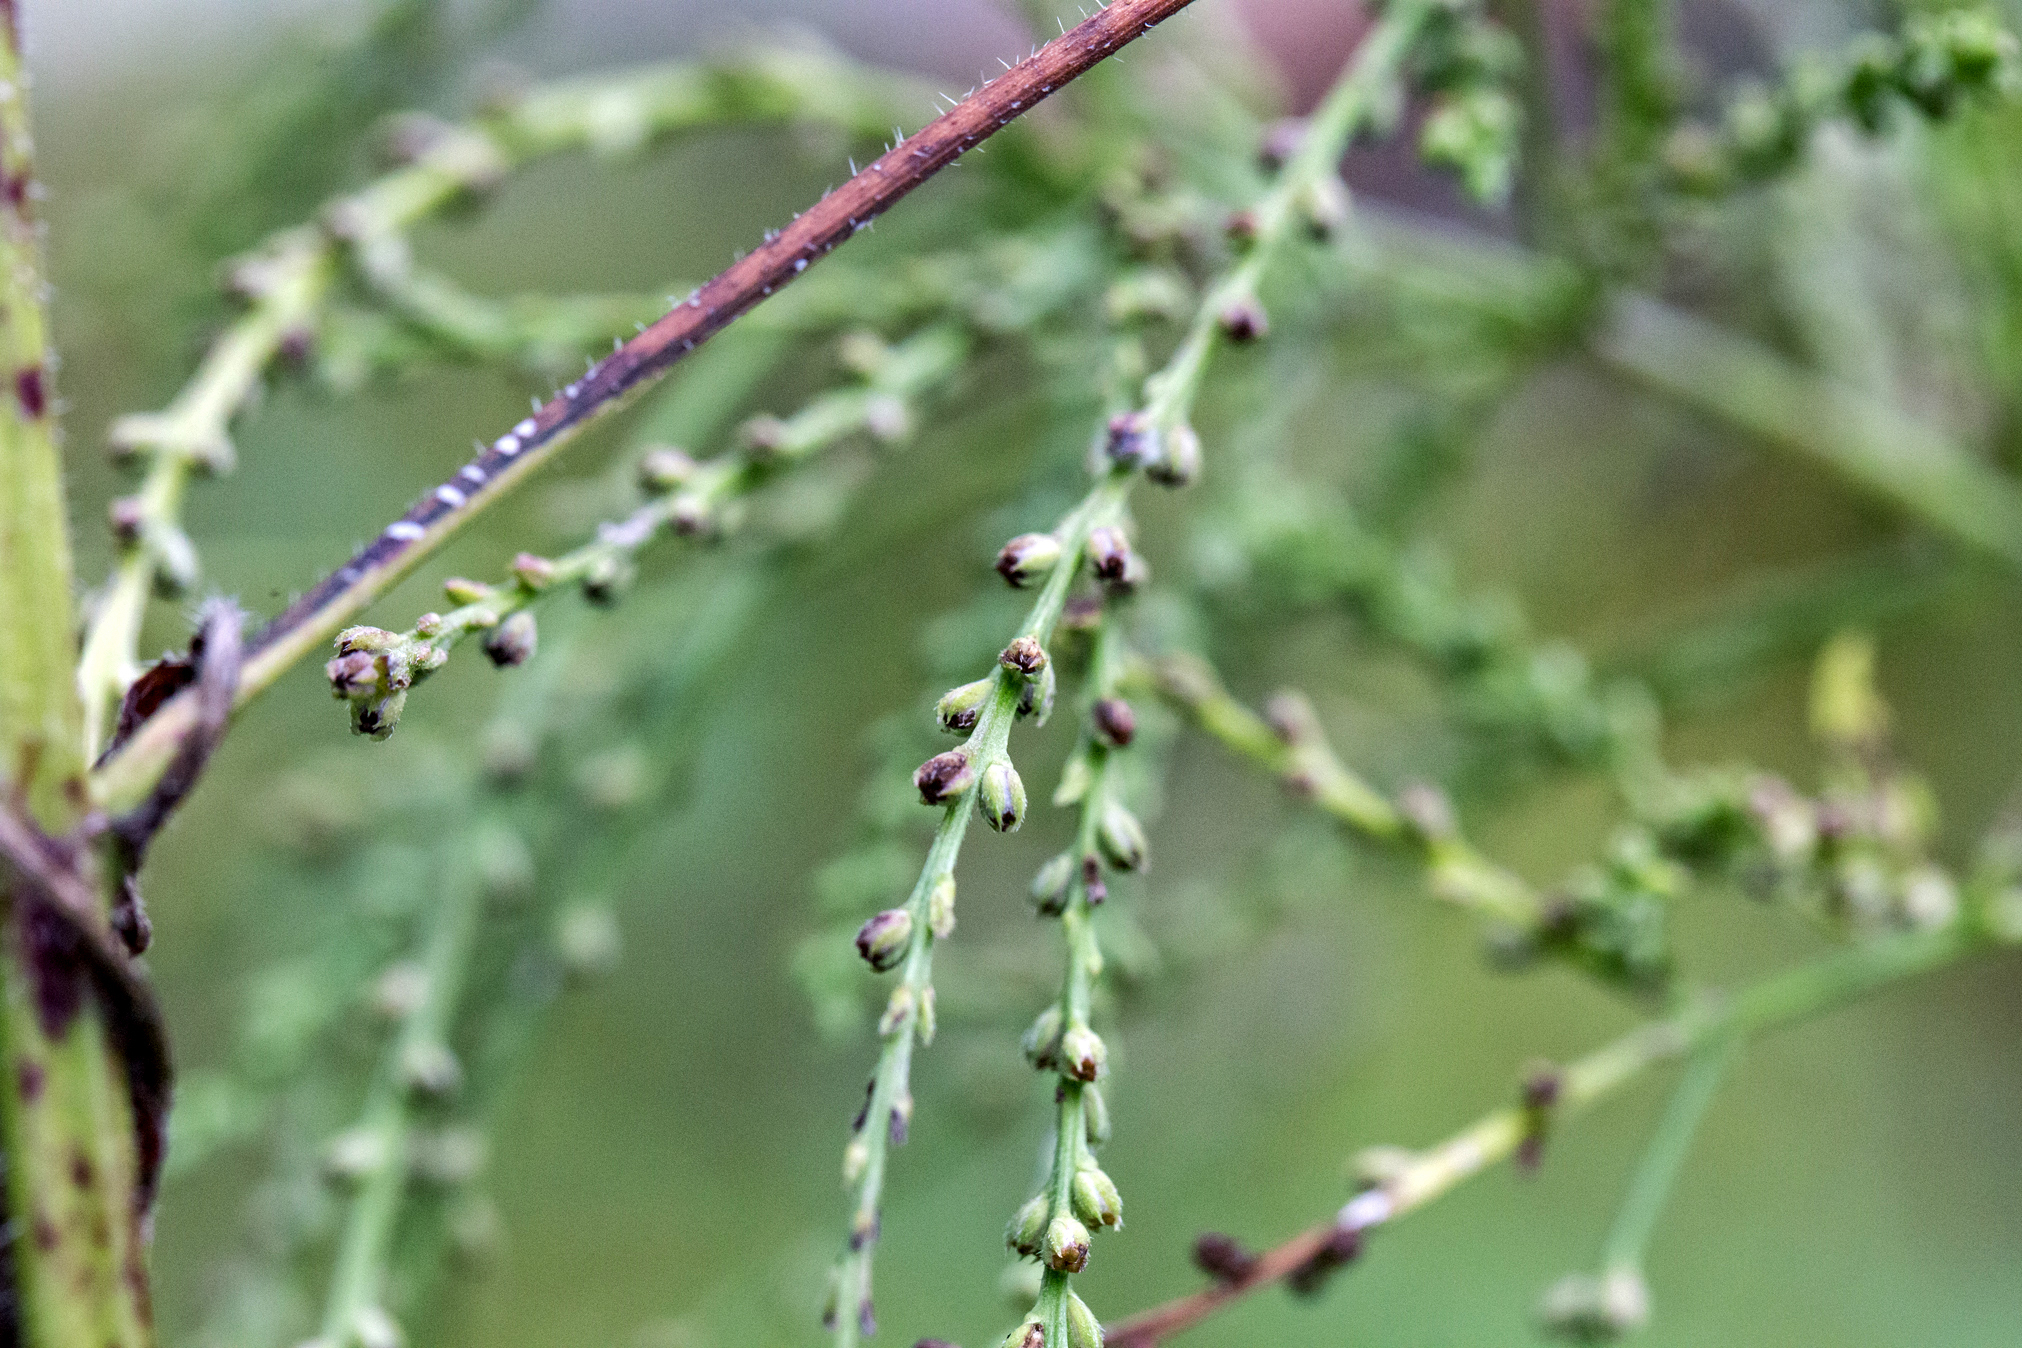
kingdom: Plantae
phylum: Tracheophyta
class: Magnoliopsida
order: Lamiales
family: Verbenaceae
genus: Verbena
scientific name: Verbena urticifolia
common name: Nettle-leaved vervain
